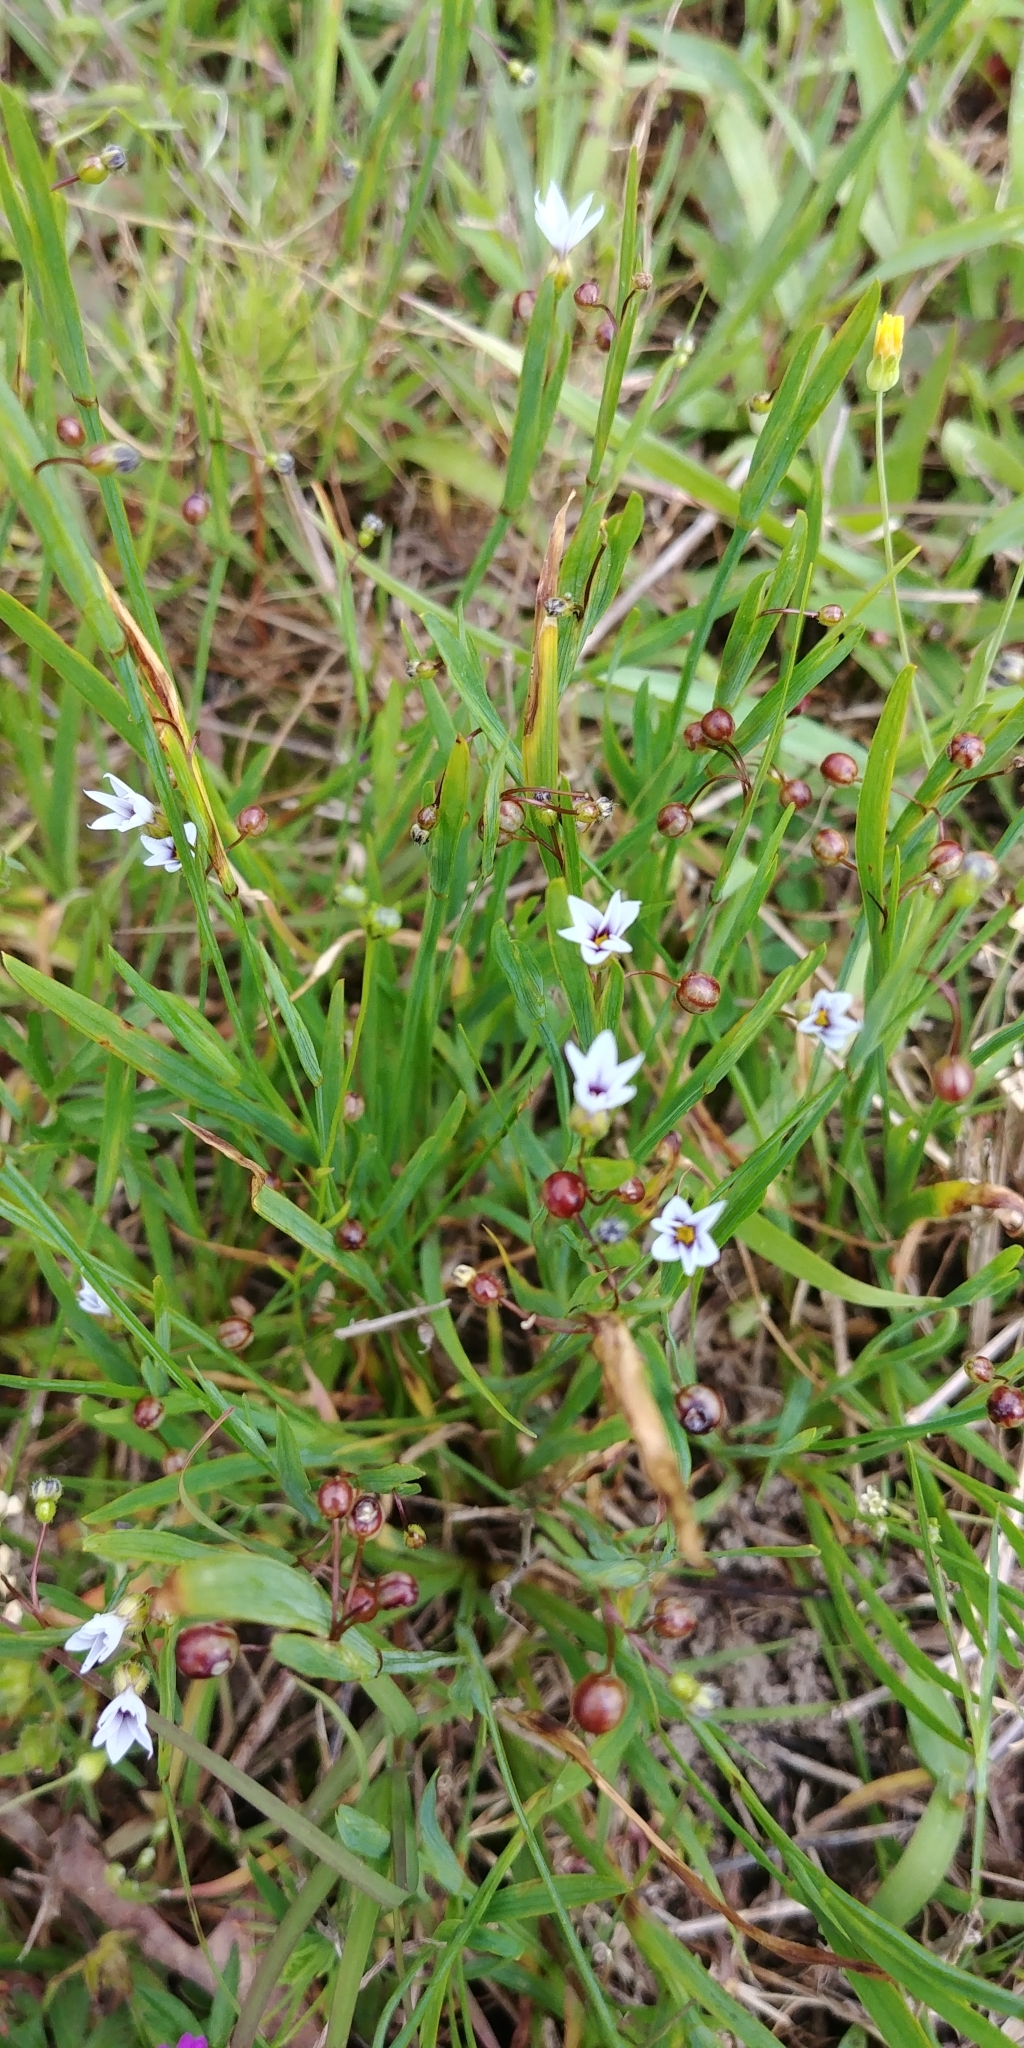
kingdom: Plantae
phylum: Tracheophyta
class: Liliopsida
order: Asparagales
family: Iridaceae
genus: Sisyrinchium
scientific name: Sisyrinchium micranthum
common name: Bermuda pigroot
